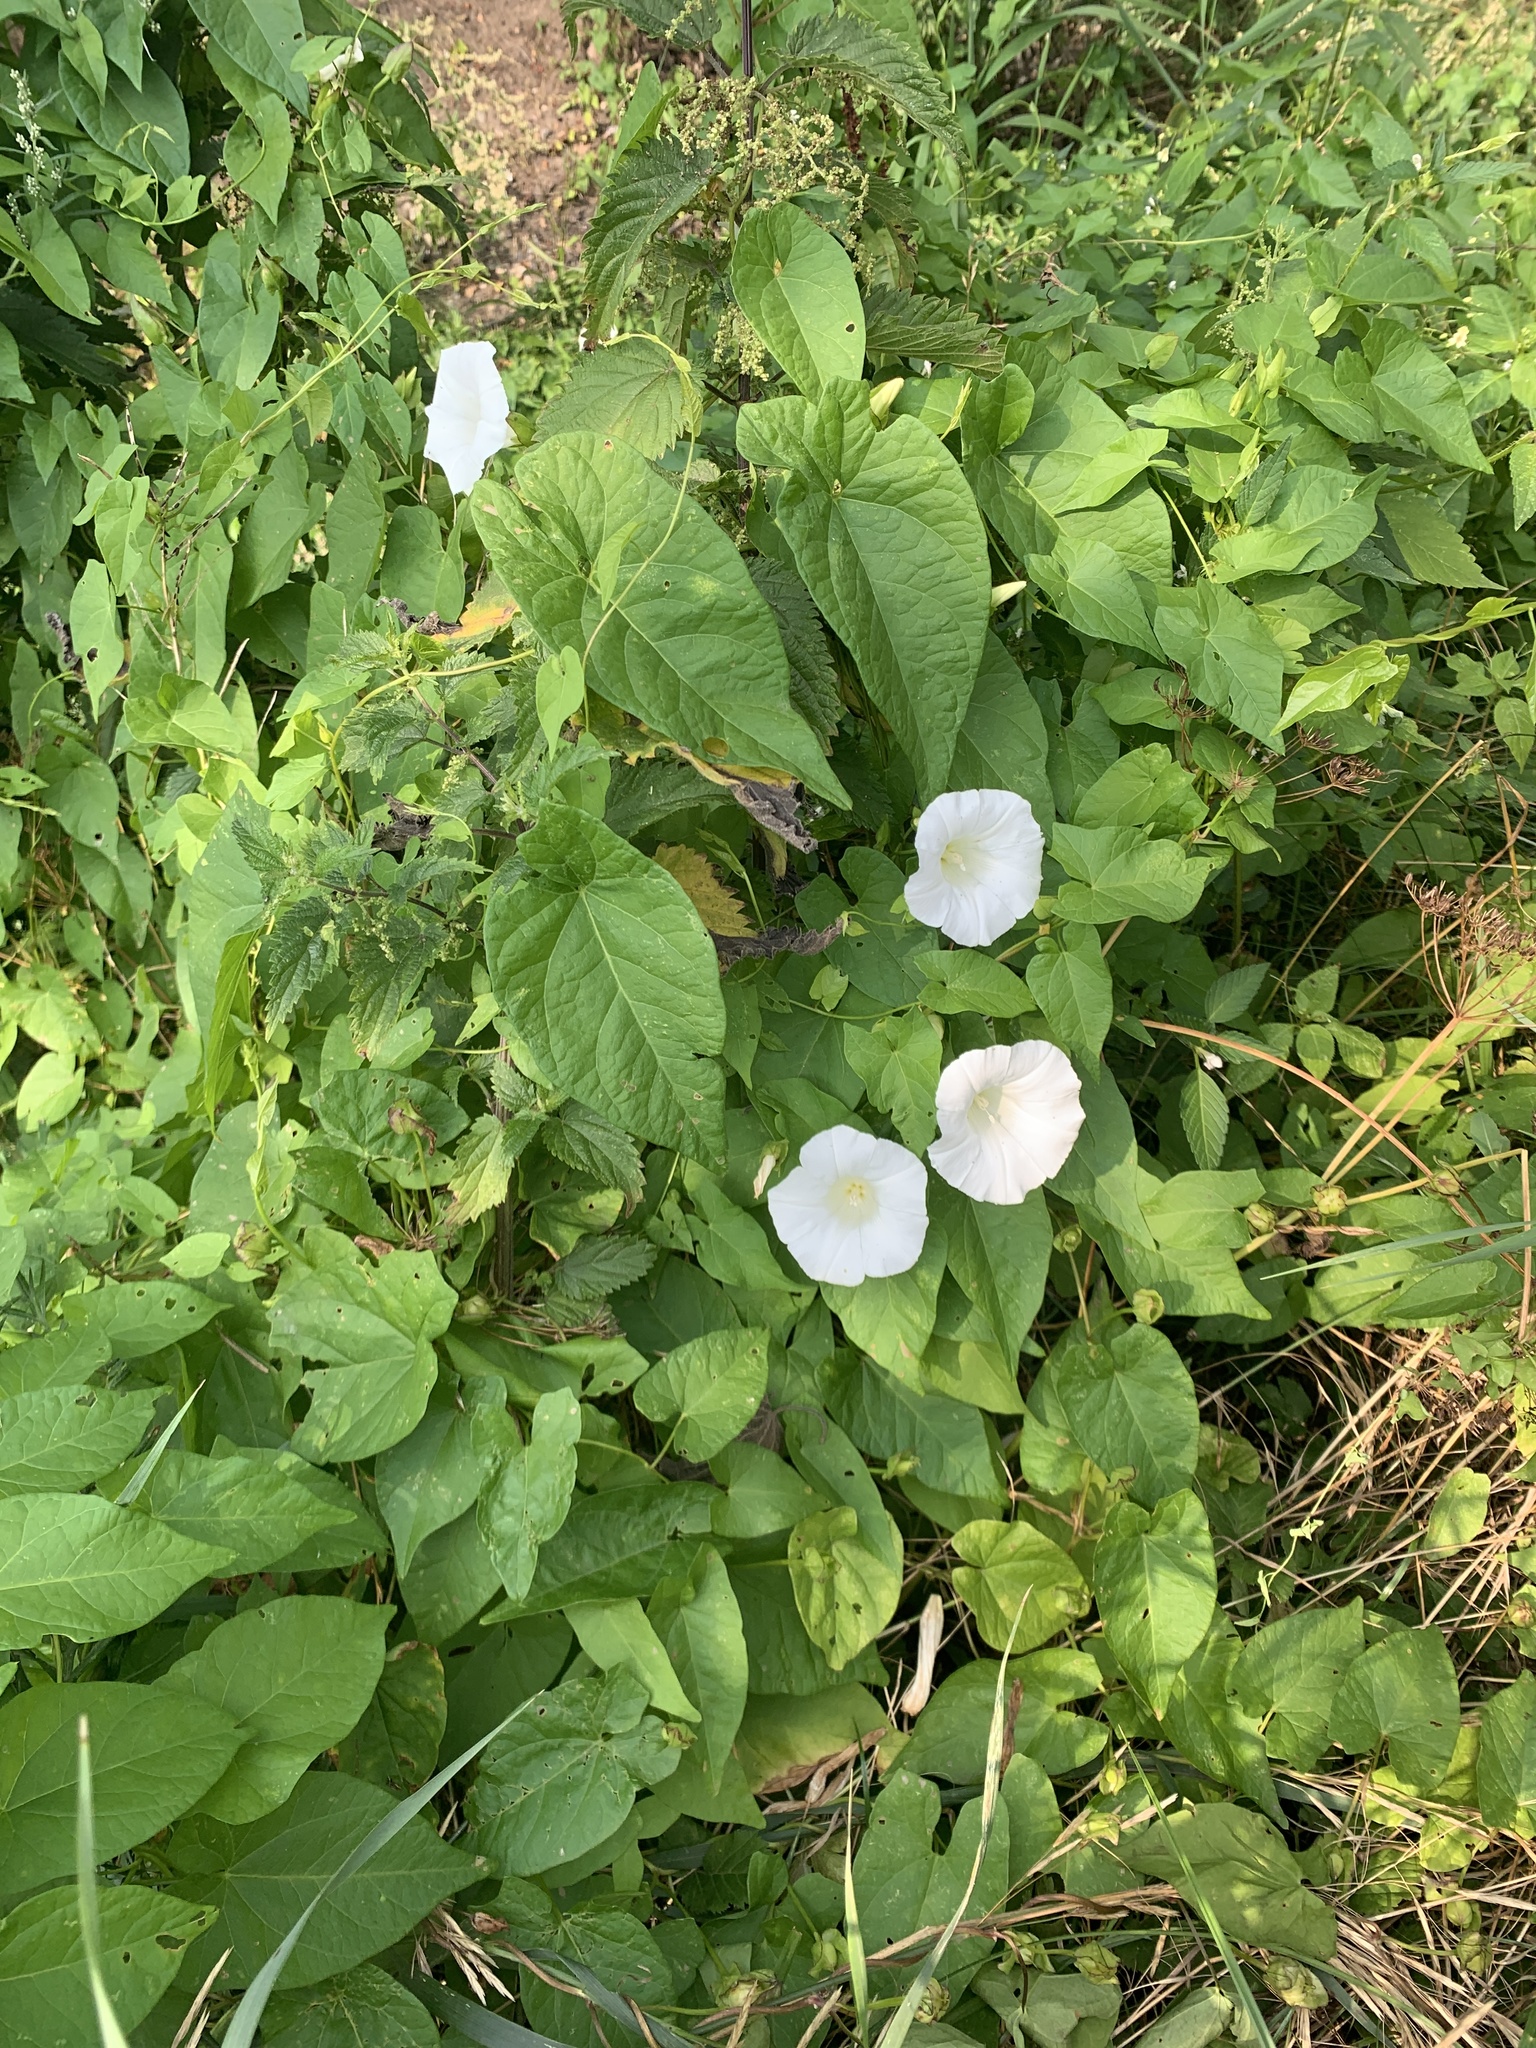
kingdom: Plantae
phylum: Tracheophyta
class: Magnoliopsida
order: Solanales
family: Convolvulaceae
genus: Calystegia
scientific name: Calystegia sepium
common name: Hedge bindweed
